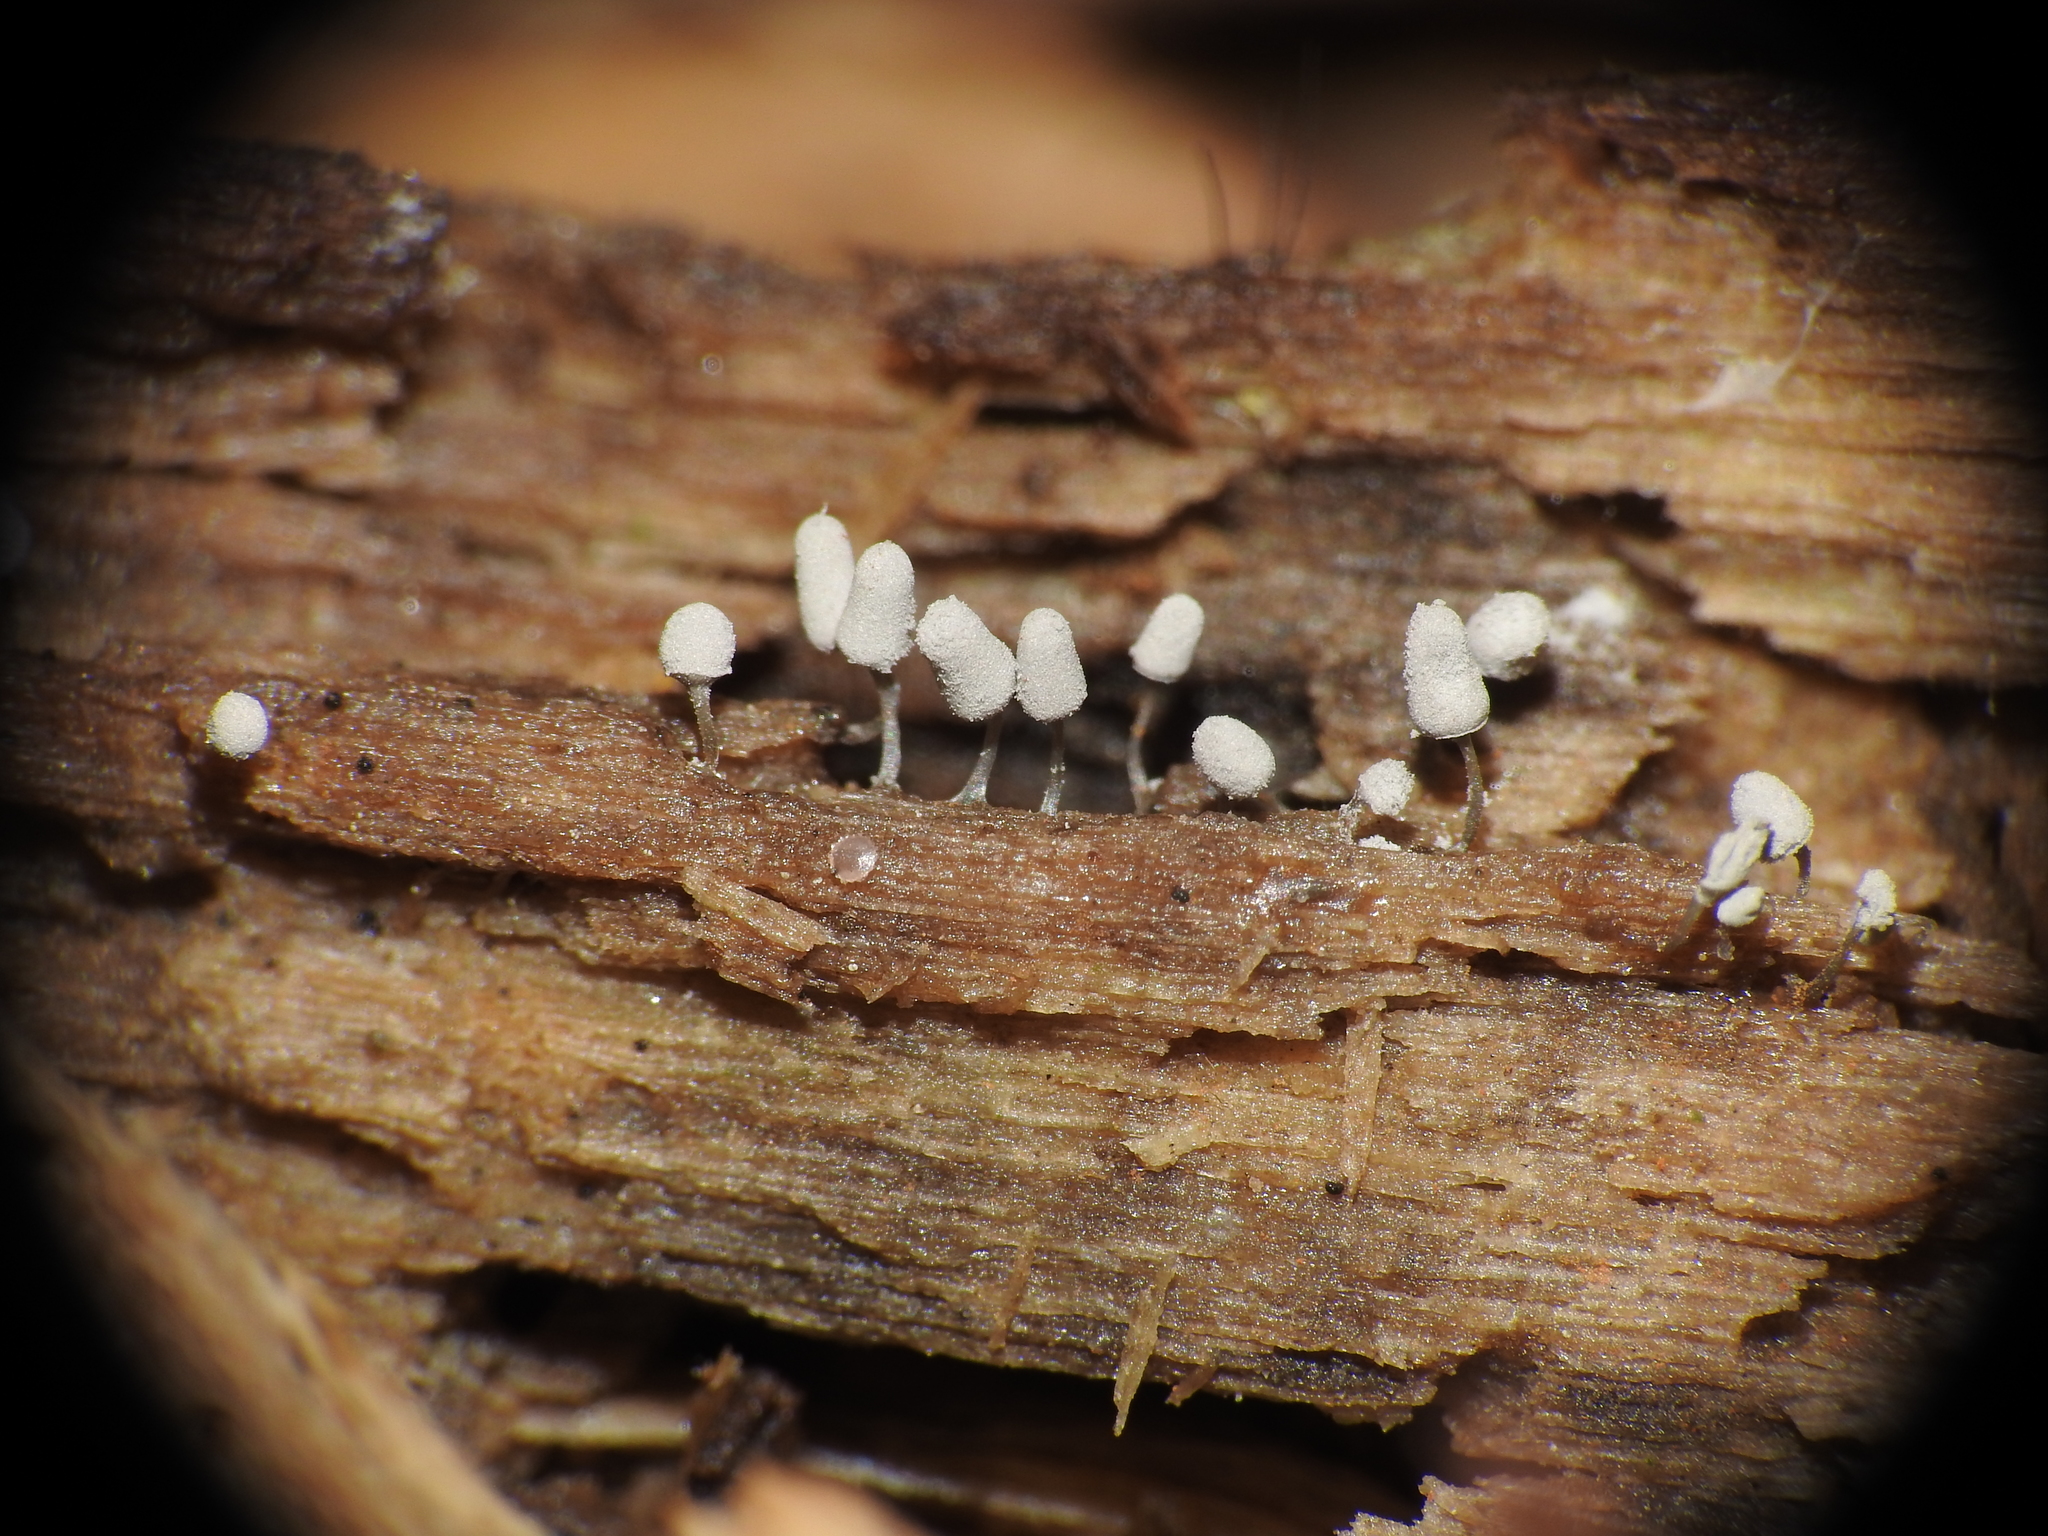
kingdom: Protozoa
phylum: Mycetozoa
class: Myxomycetes
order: Trichiales
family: Arcyriaceae
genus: Arcyria
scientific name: Arcyria cinerea
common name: White carnival candy slime mold
